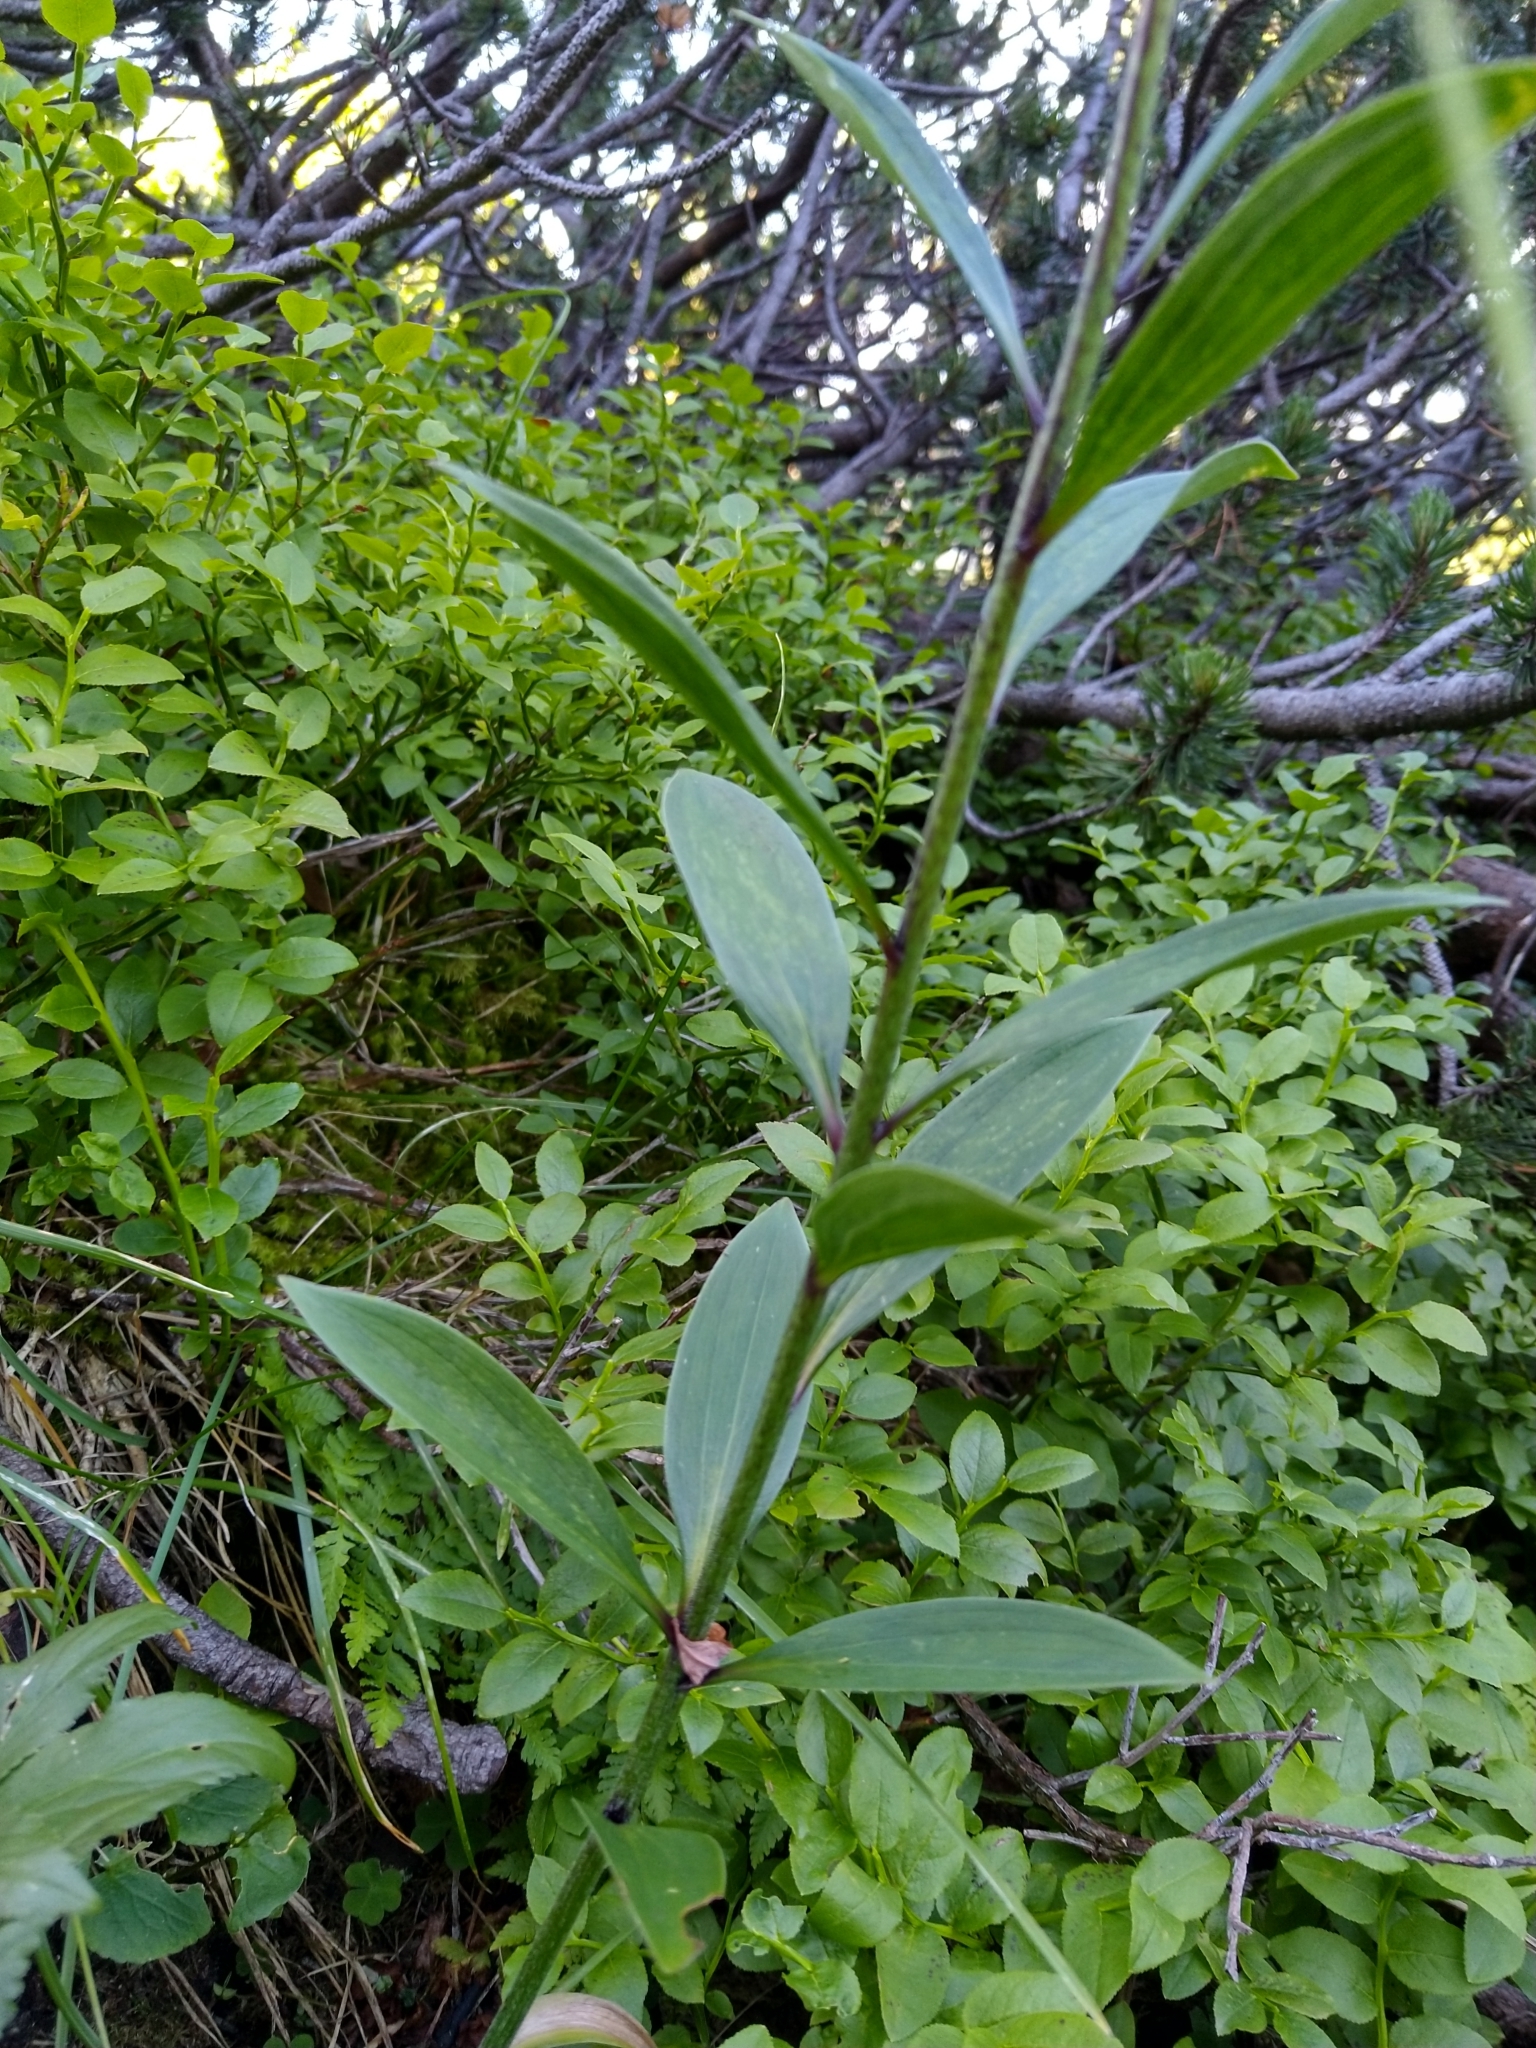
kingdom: Plantae
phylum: Tracheophyta
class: Liliopsida
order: Liliales
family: Liliaceae
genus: Lilium
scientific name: Lilium martagon
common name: Martagon lily
